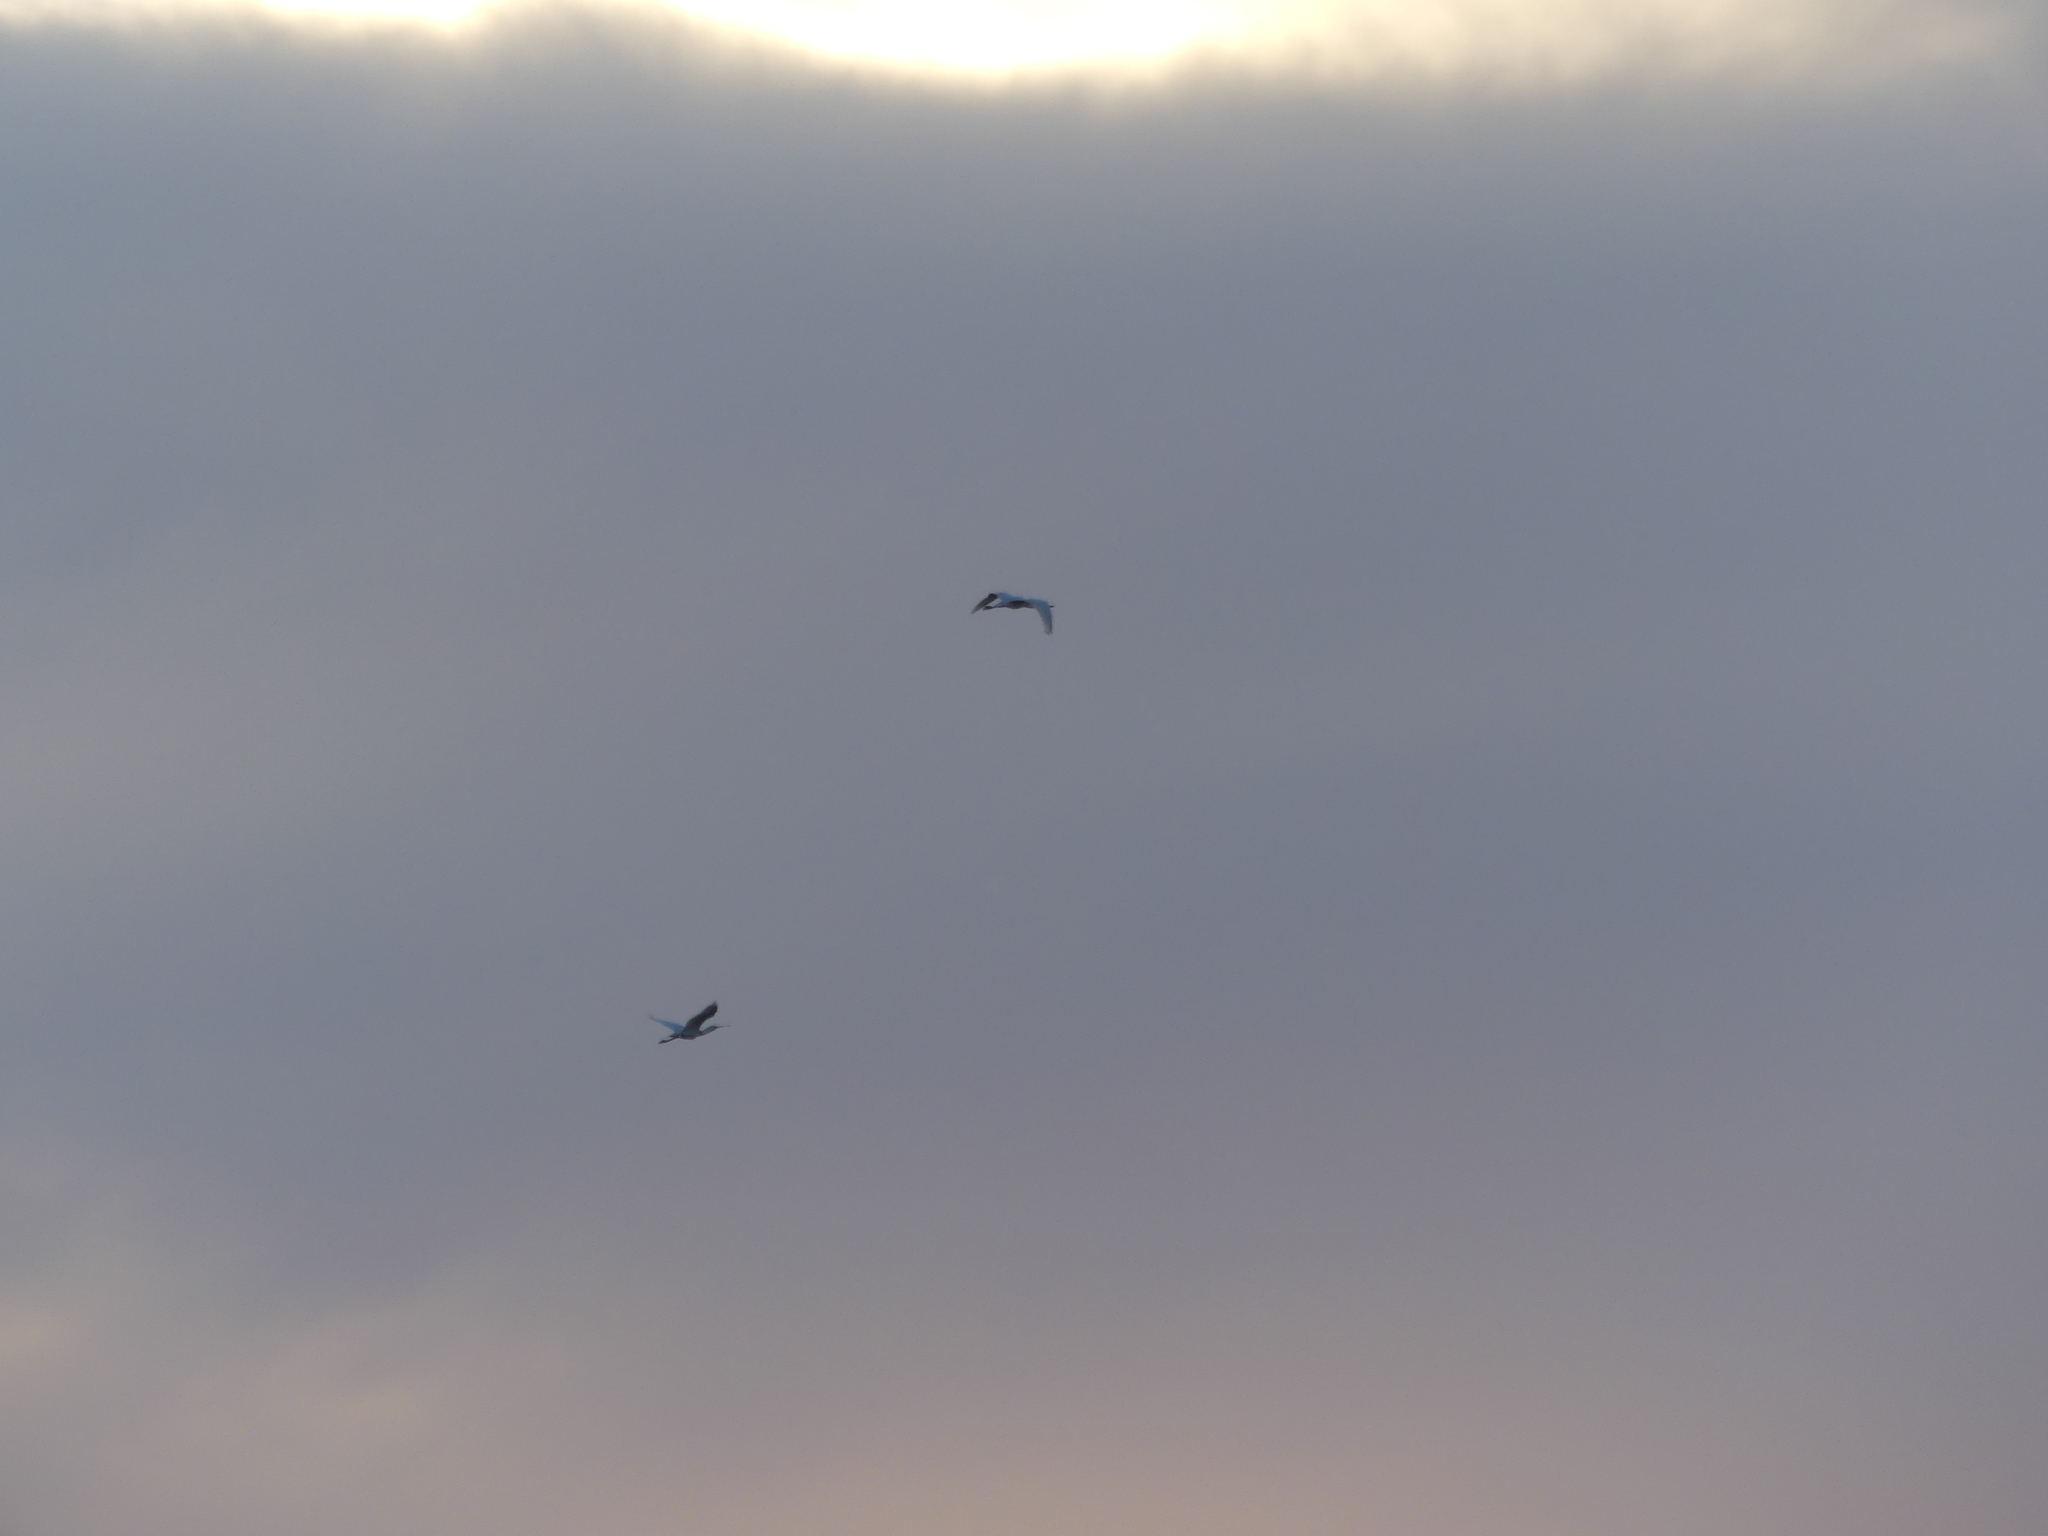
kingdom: Animalia
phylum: Chordata
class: Aves
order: Pelecaniformes
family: Threskiornithidae
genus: Platalea
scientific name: Platalea leucorodia
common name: Eurasian spoonbill
